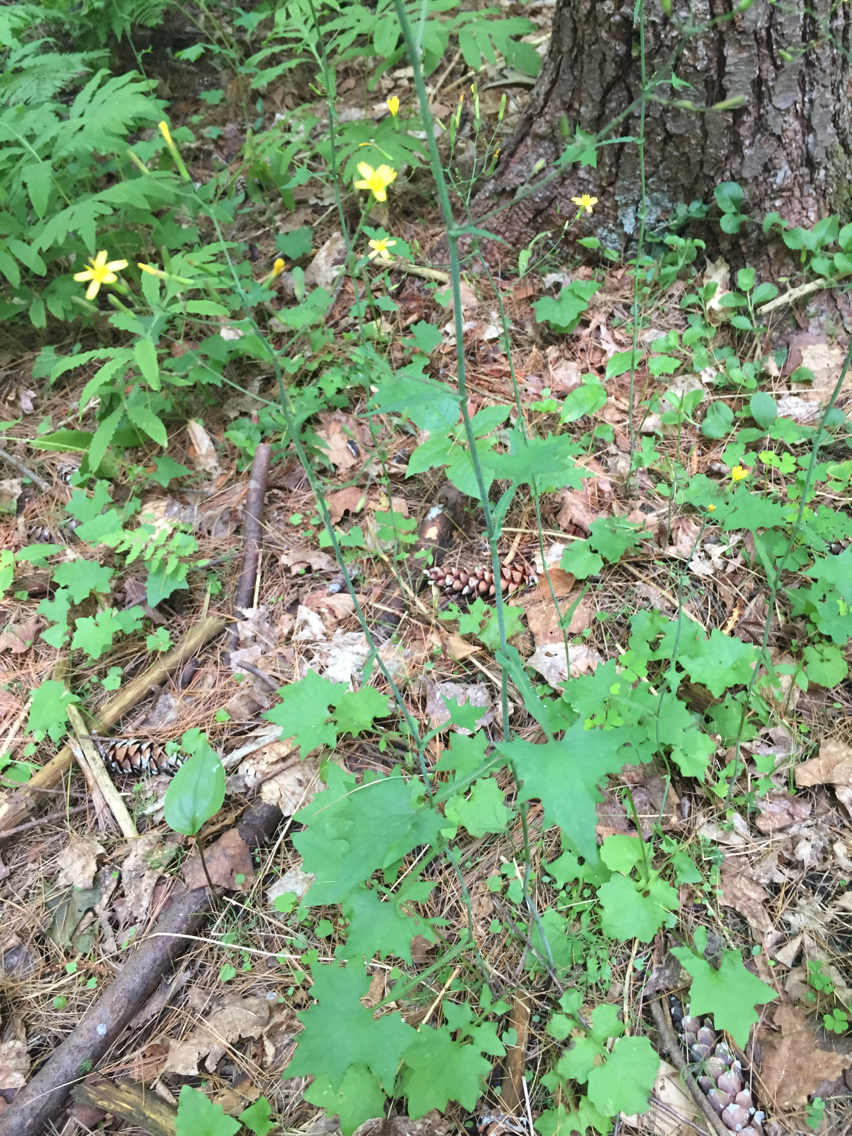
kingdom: Plantae
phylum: Tracheophyta
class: Magnoliopsida
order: Asterales
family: Asteraceae
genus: Mycelis
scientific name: Mycelis muralis
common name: Wall lettuce
